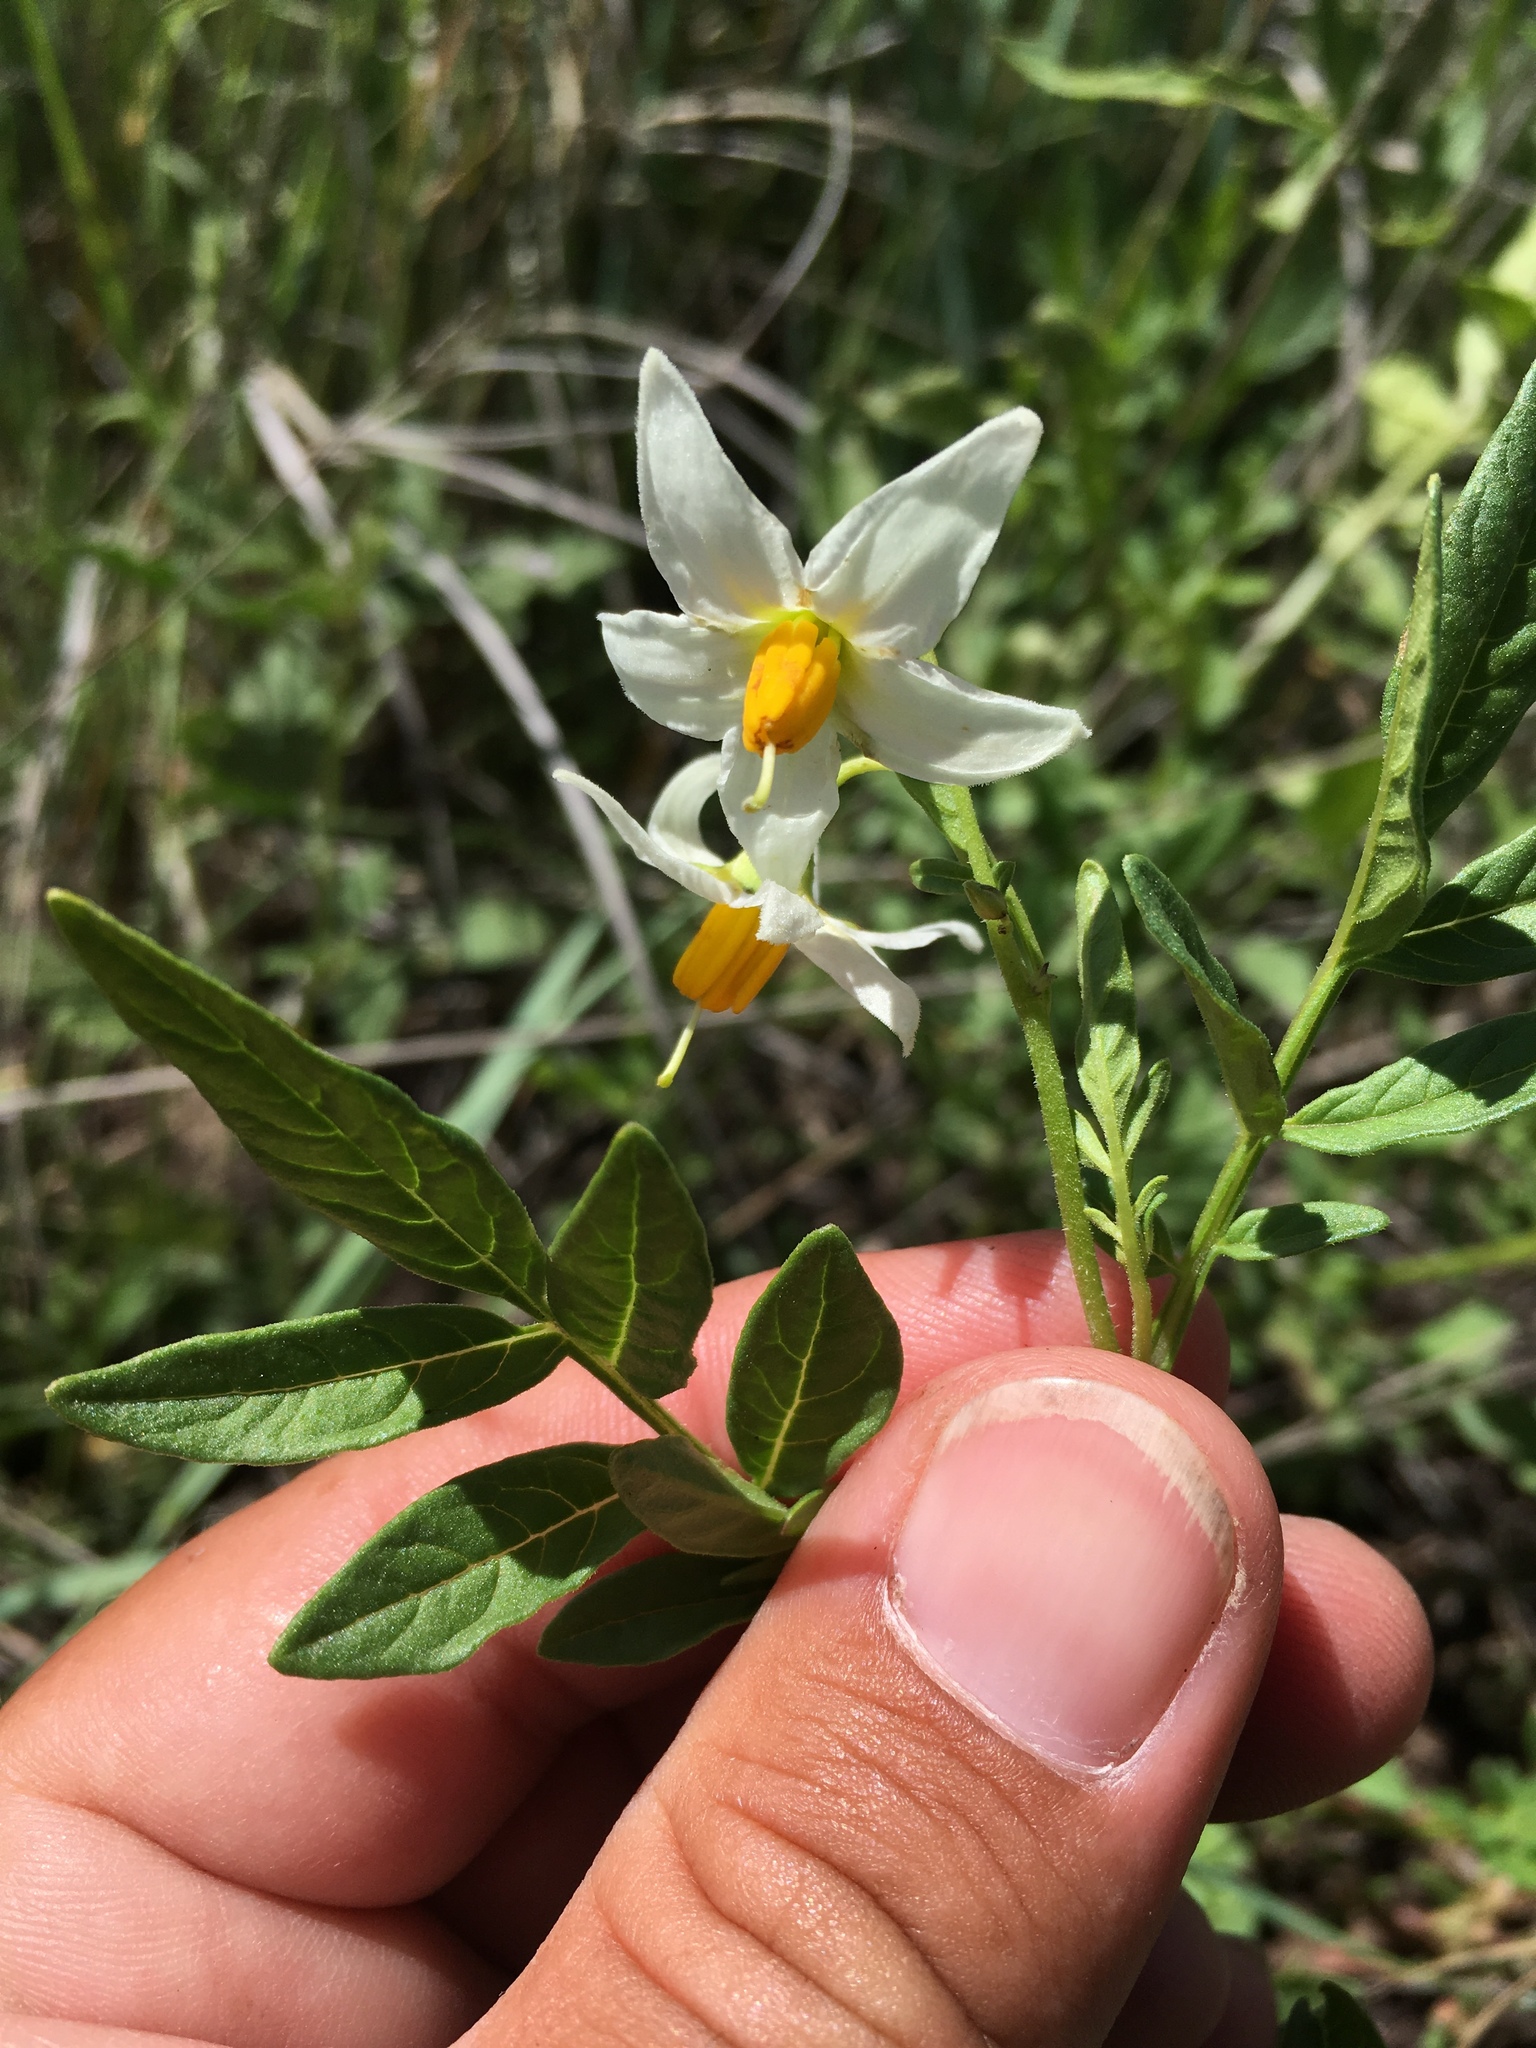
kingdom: Plantae
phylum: Tracheophyta
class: Magnoliopsida
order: Solanales
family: Solanaceae
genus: Solanum
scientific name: Solanum jamesii
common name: Wild potato
